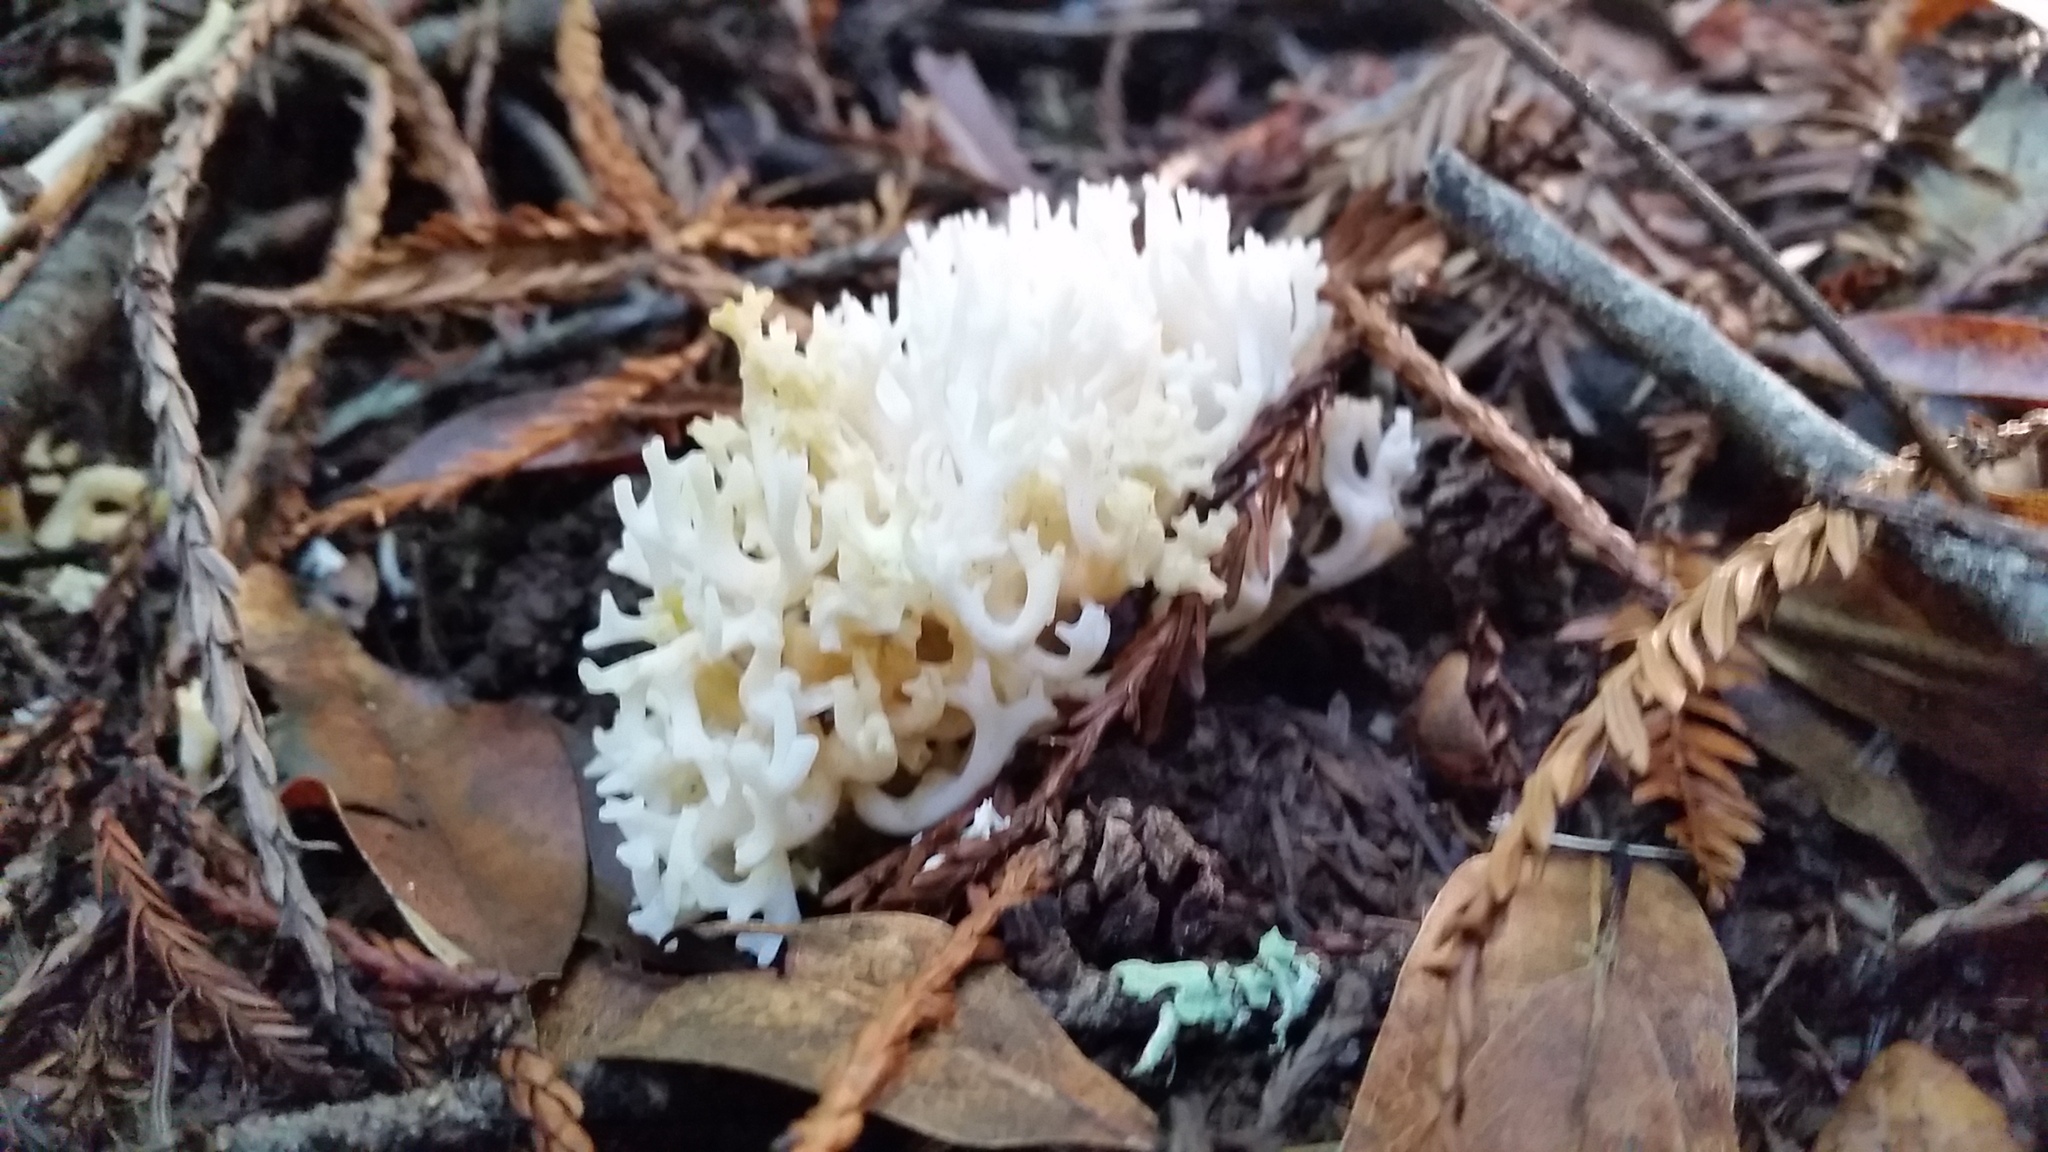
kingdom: Fungi
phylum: Basidiomycota
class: Agaricomycetes
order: Agaricales
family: Clavariaceae
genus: Ramariopsis
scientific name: Ramariopsis kunzei
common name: Ivory coral
